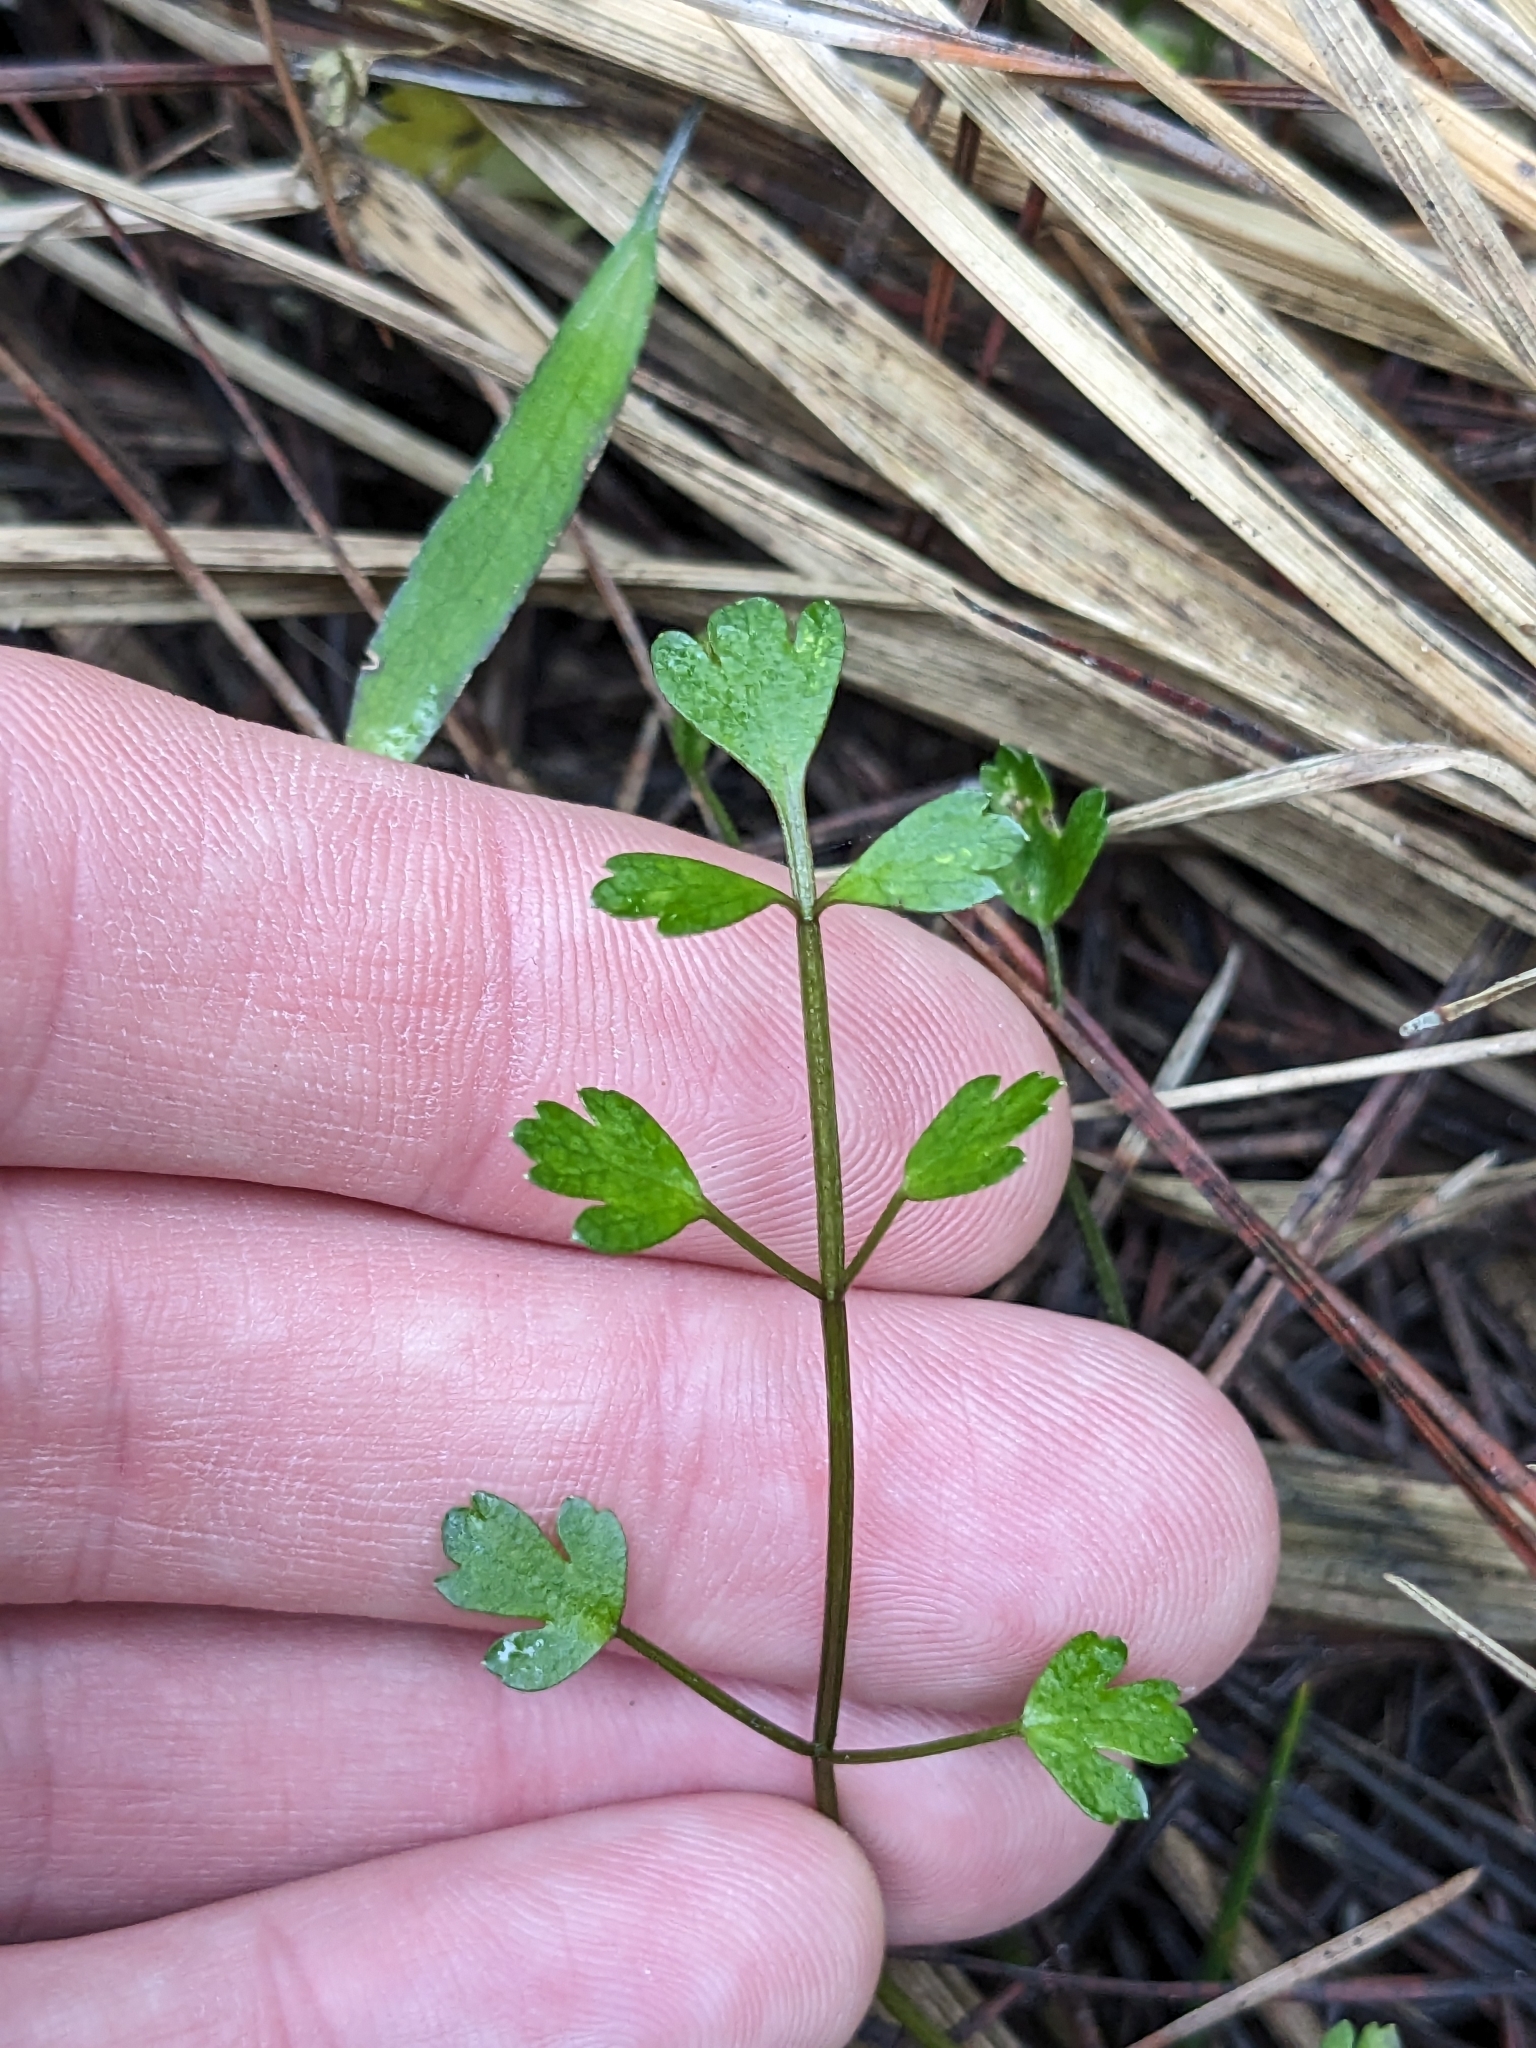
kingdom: Plantae
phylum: Tracheophyta
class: Magnoliopsida
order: Apiales
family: Apiaceae
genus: Apium
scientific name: Apium prostratum
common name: Prostrate marshwort
